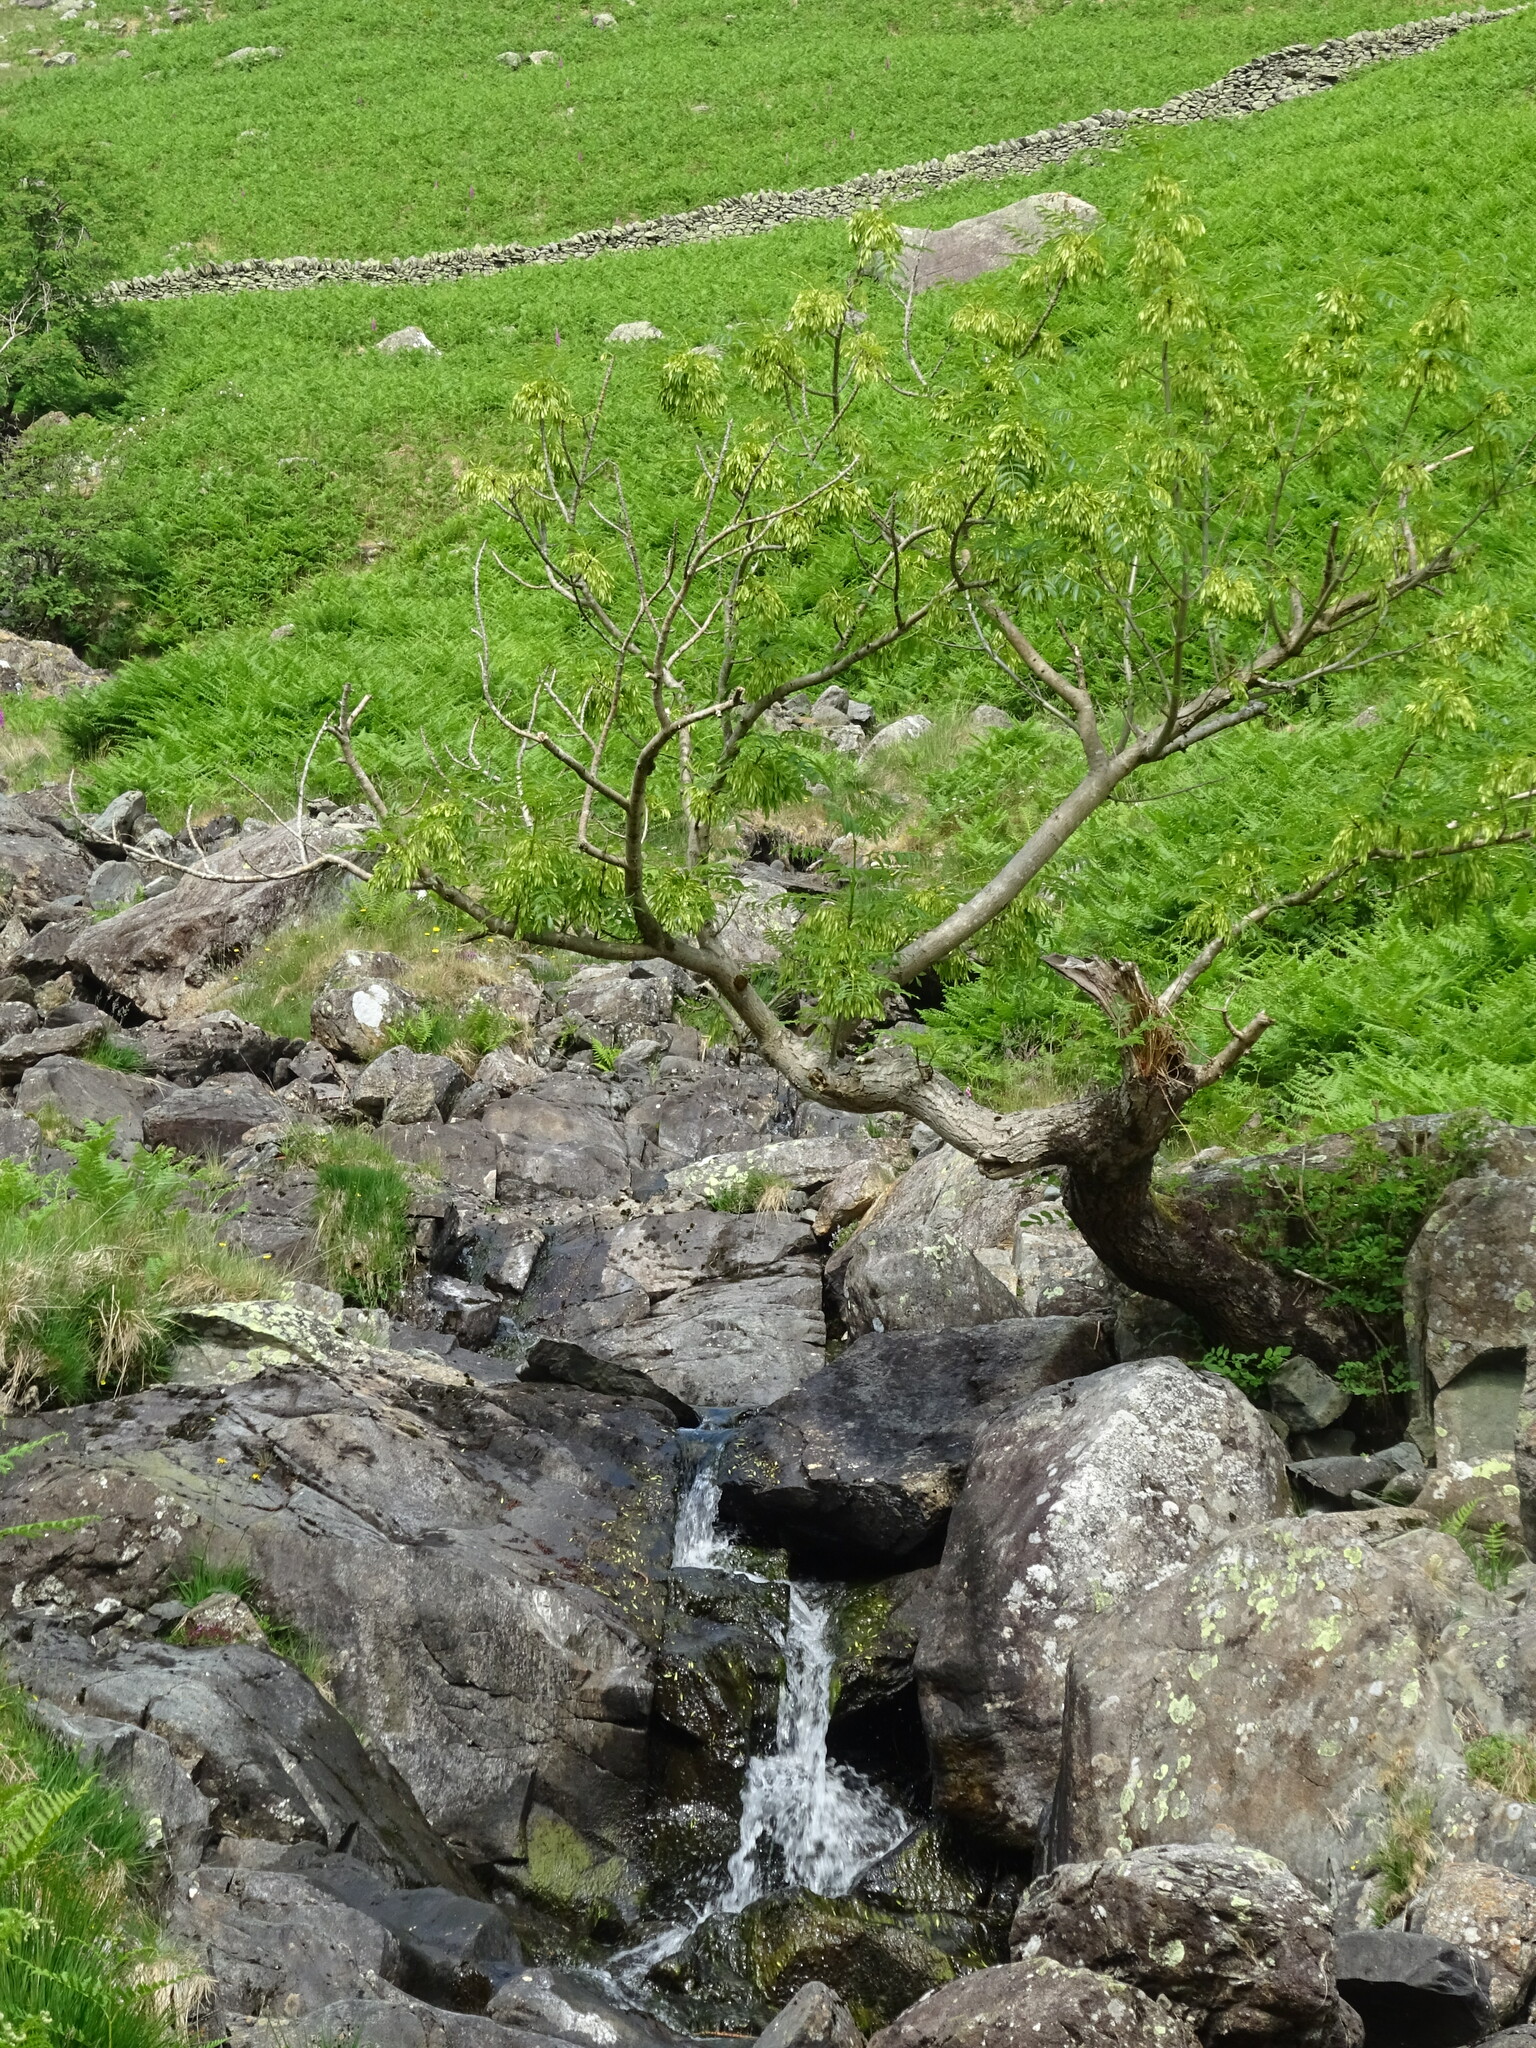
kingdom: Plantae
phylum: Tracheophyta
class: Magnoliopsida
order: Lamiales
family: Oleaceae
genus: Fraxinus
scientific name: Fraxinus excelsior
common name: European ash
